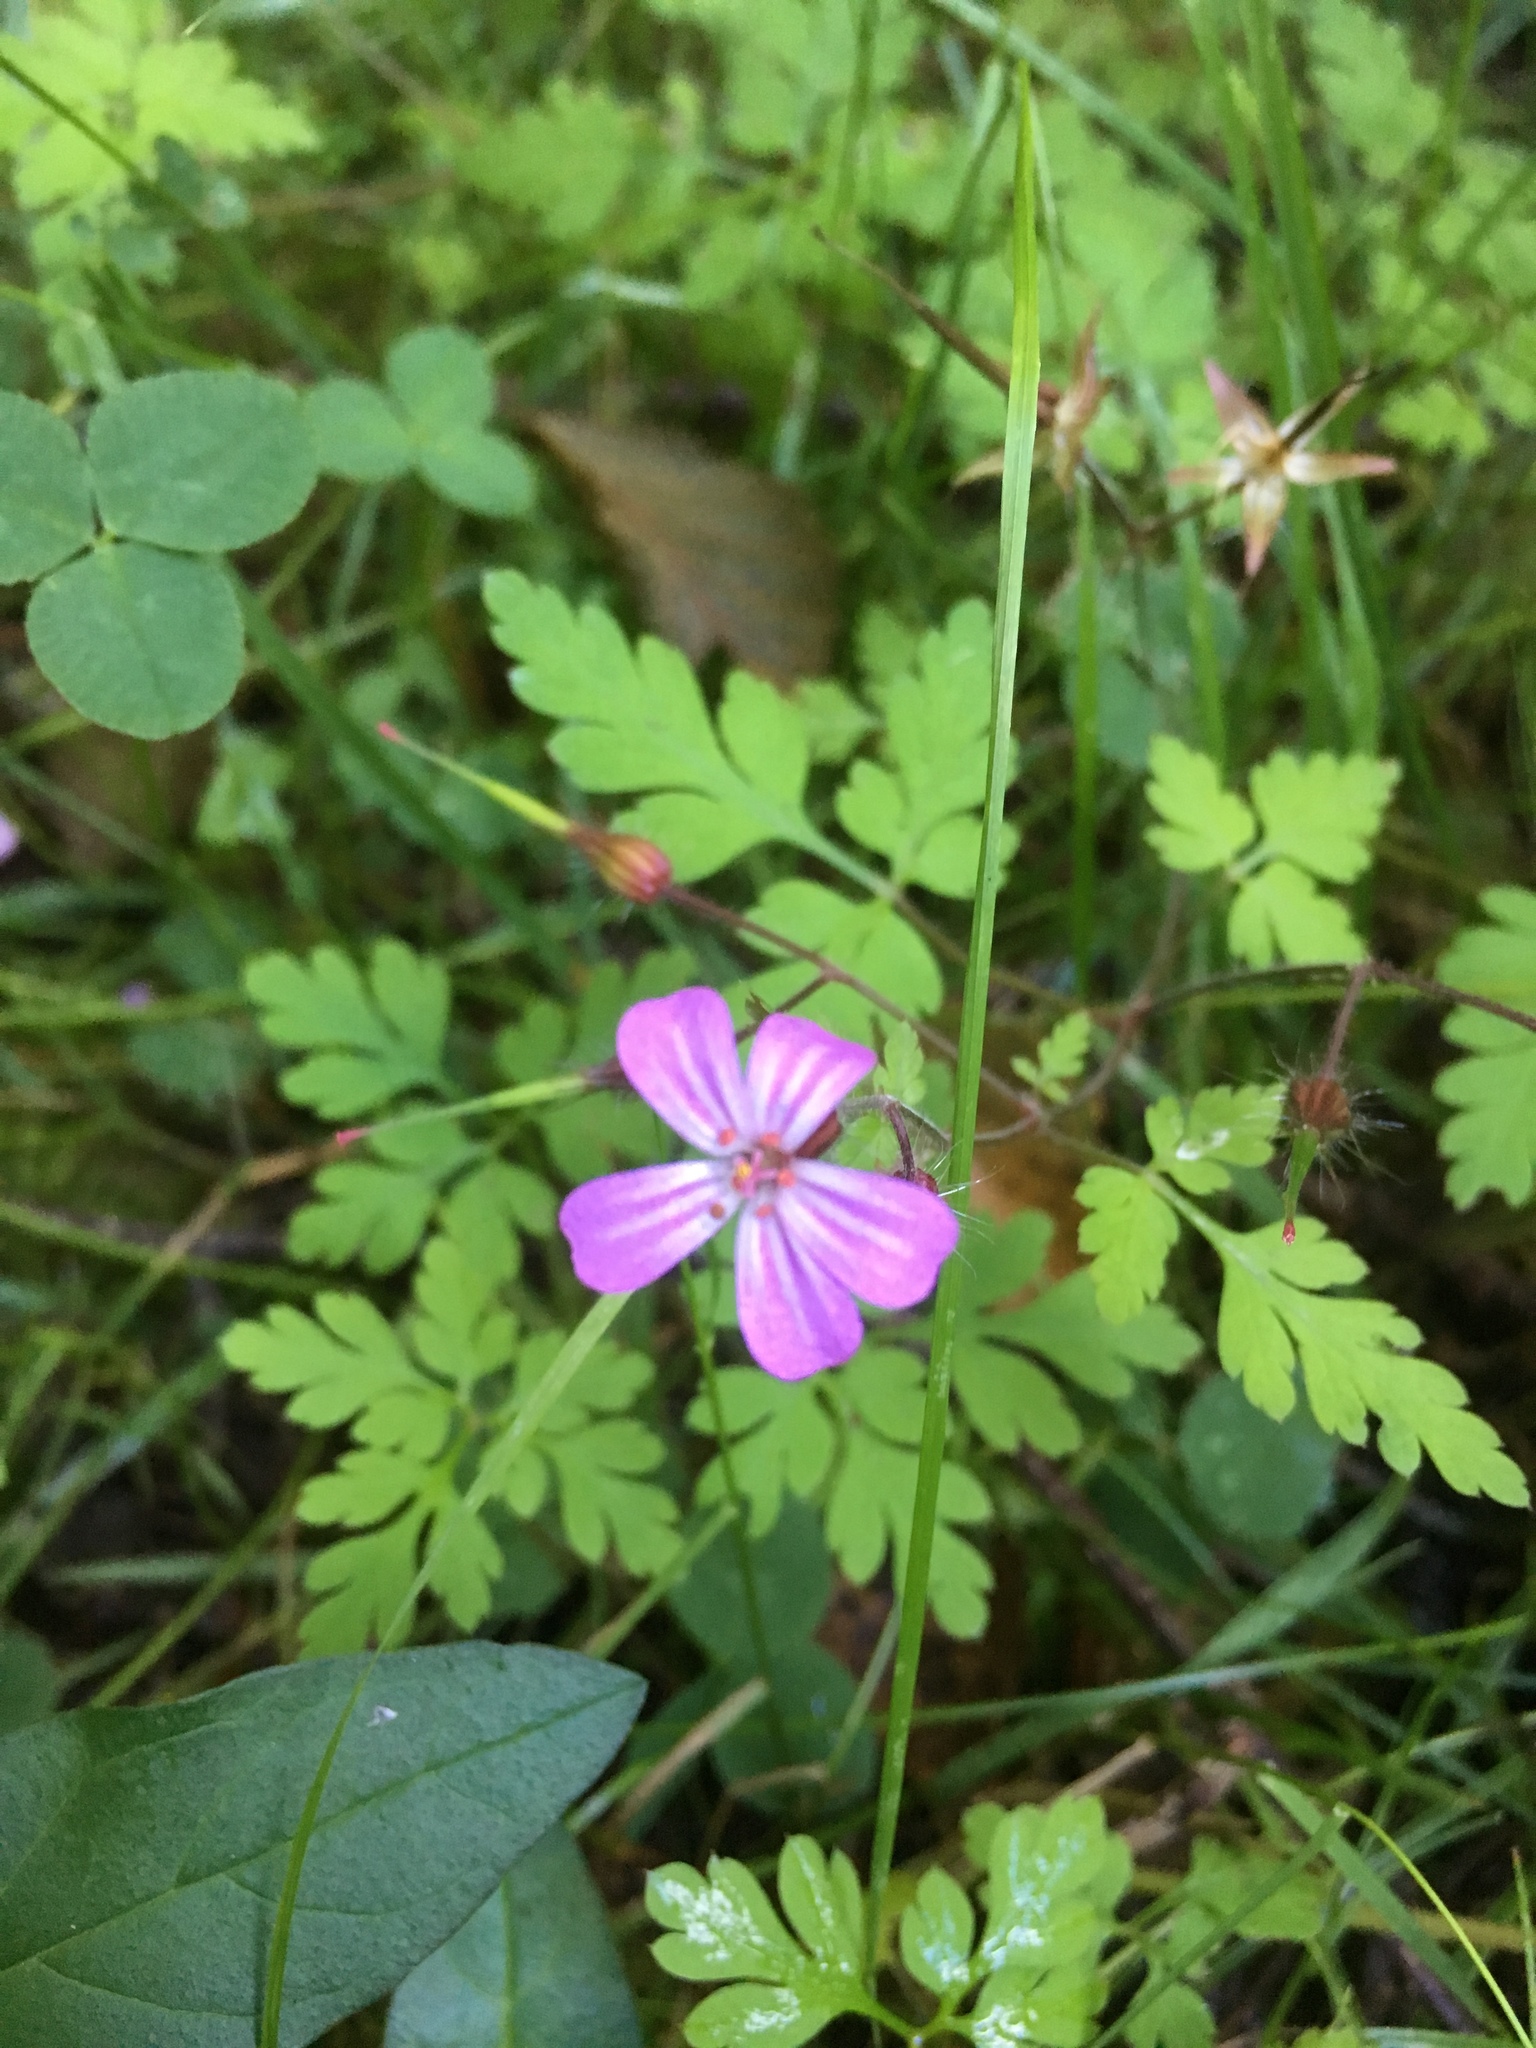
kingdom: Plantae
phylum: Tracheophyta
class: Magnoliopsida
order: Geraniales
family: Geraniaceae
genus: Geranium
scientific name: Geranium robertianum
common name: Herb-robert
